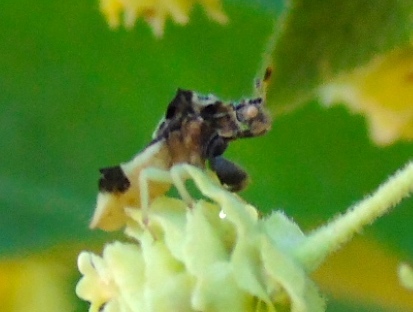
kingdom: Animalia
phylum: Arthropoda
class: Insecta
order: Hemiptera
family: Reduviidae
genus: Phymata
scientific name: Phymata
